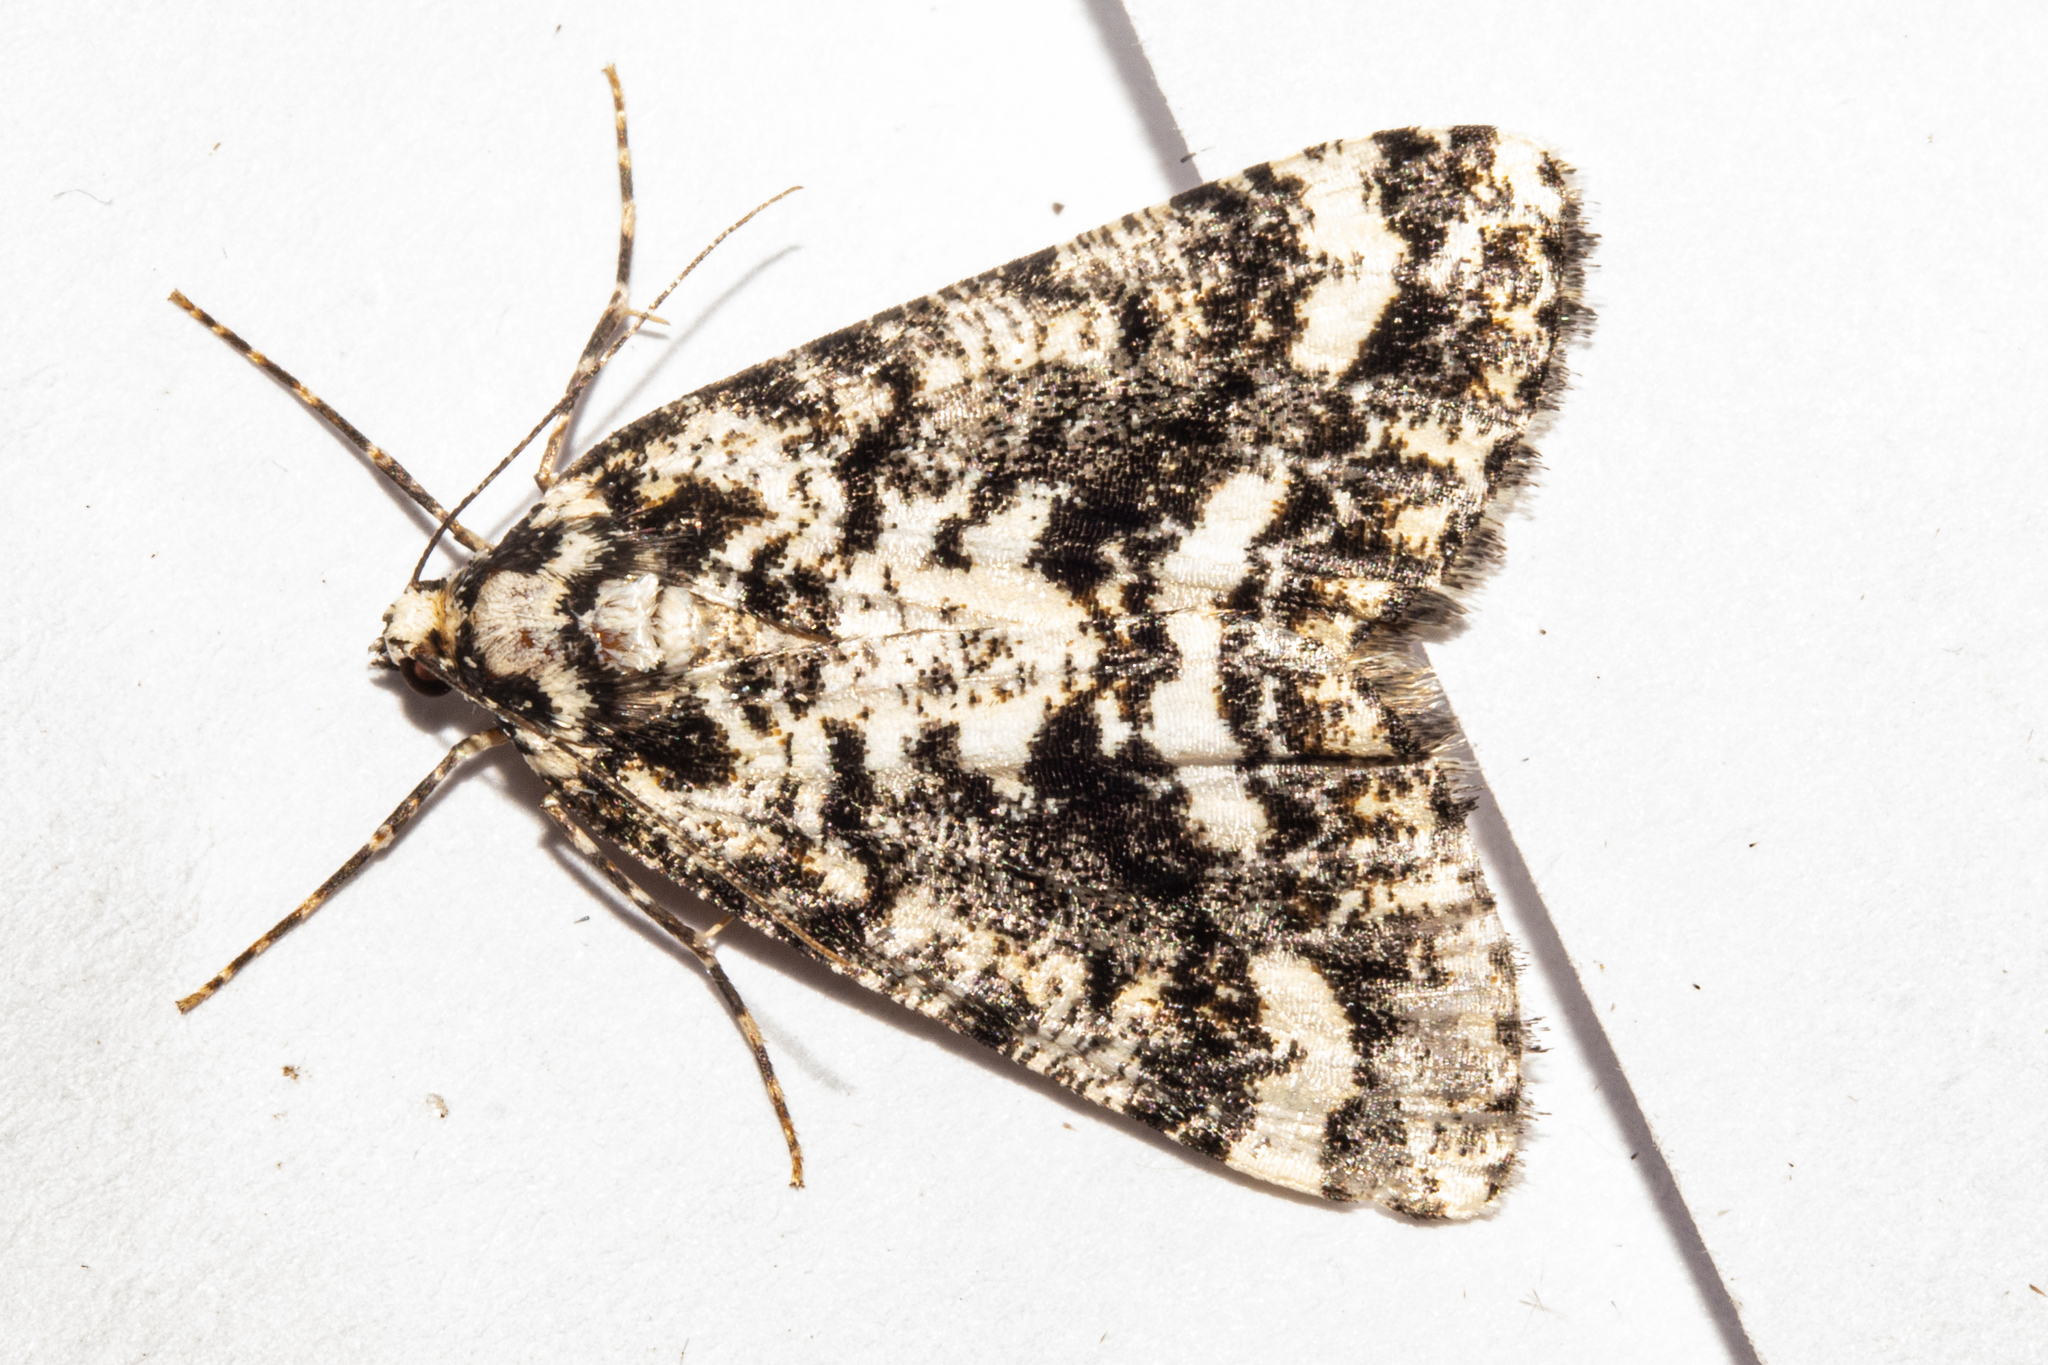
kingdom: Animalia
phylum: Arthropoda
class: Insecta
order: Lepidoptera
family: Geometridae
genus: Pseudocoremia
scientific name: Pseudocoremia leucelaea
